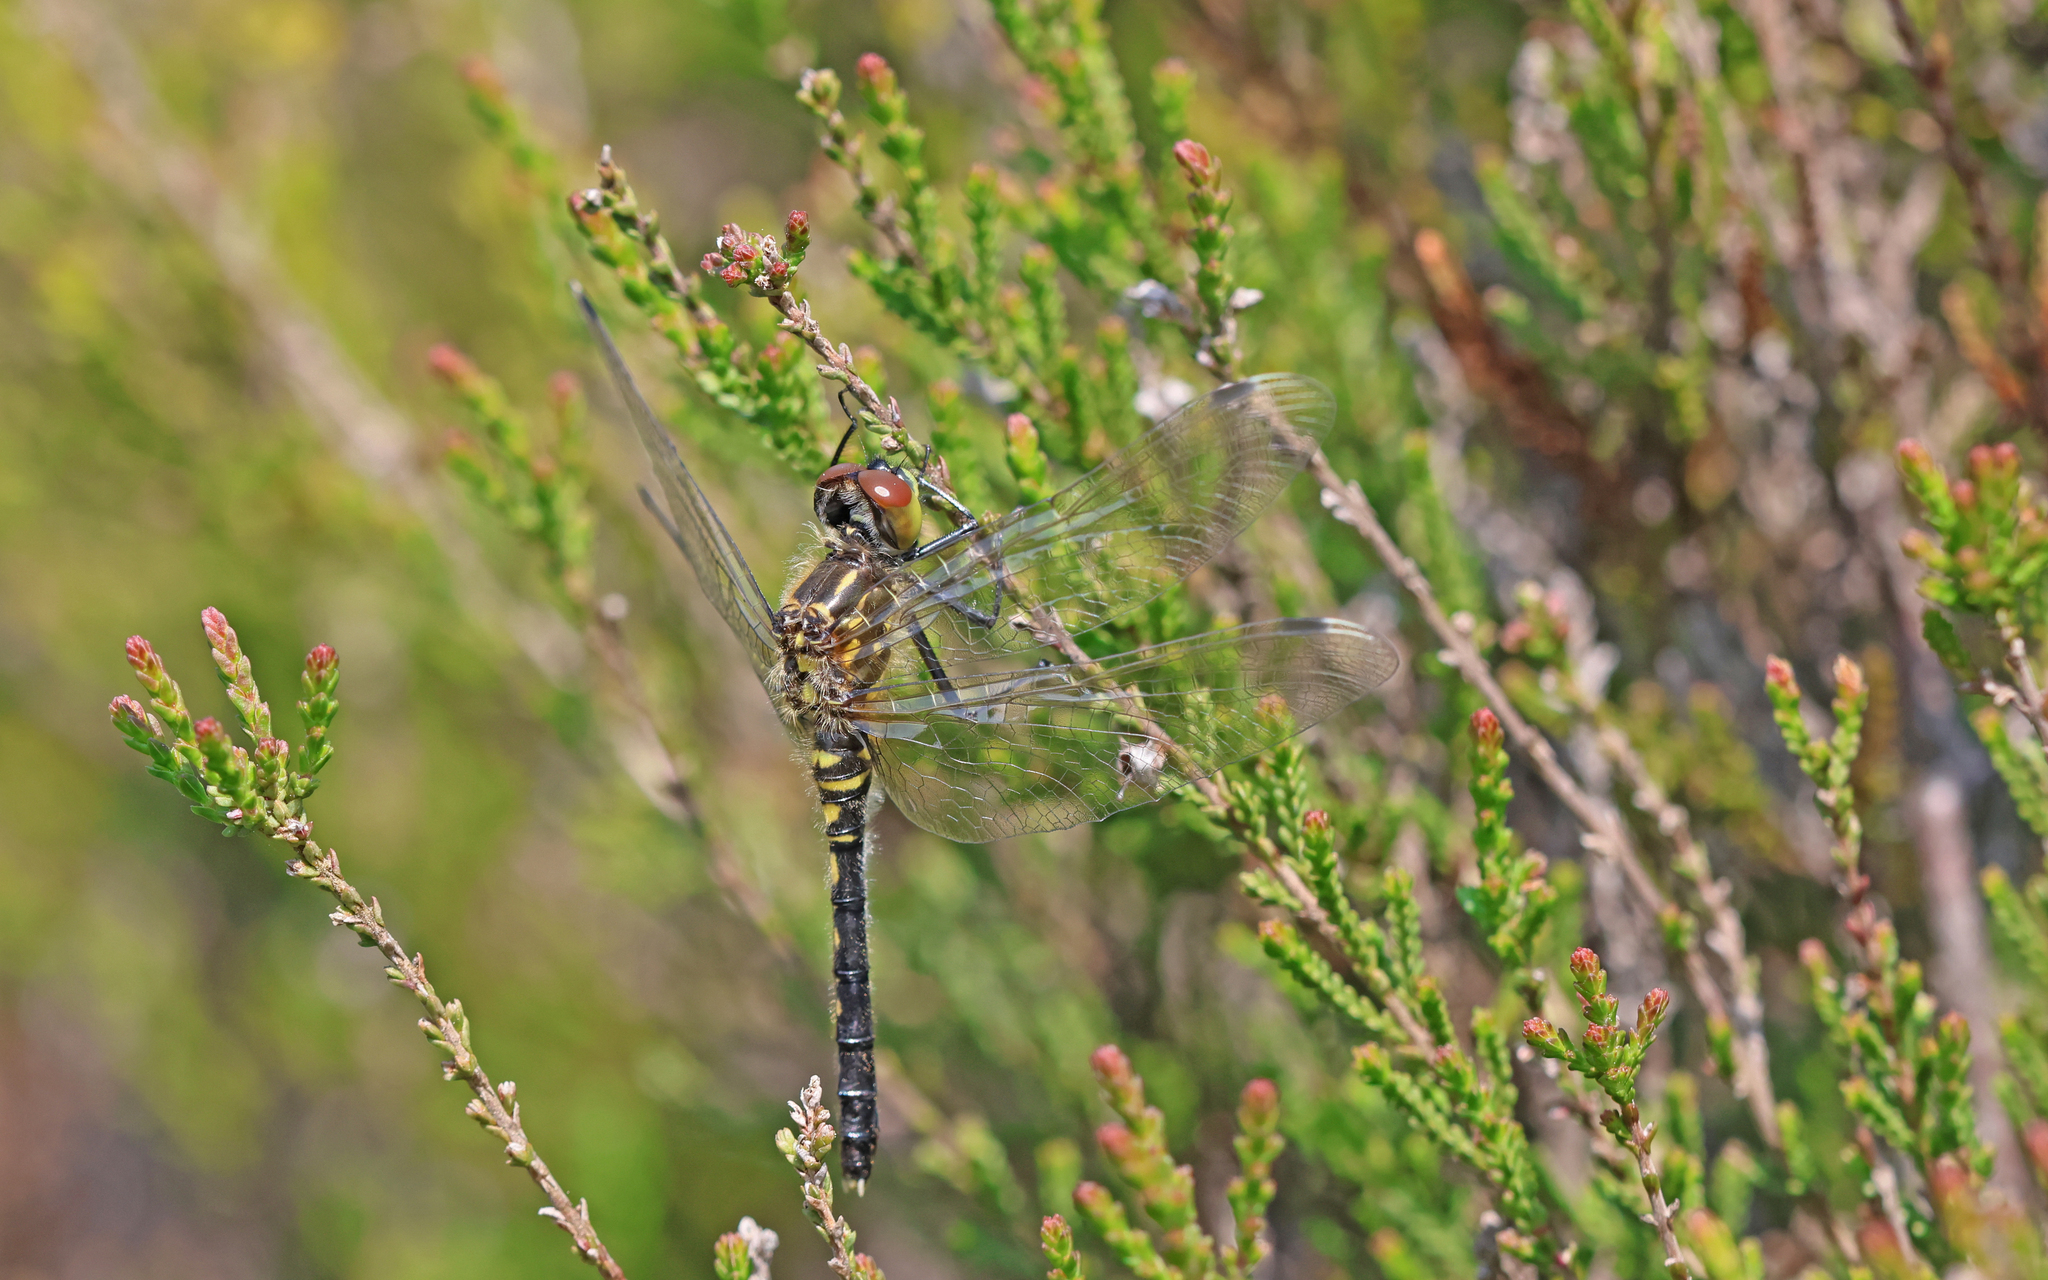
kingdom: Animalia
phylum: Arthropoda
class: Insecta
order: Odonata
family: Libellulidae
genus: Leucorrhinia
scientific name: Leucorrhinia albifrons
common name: Dark whiteface
